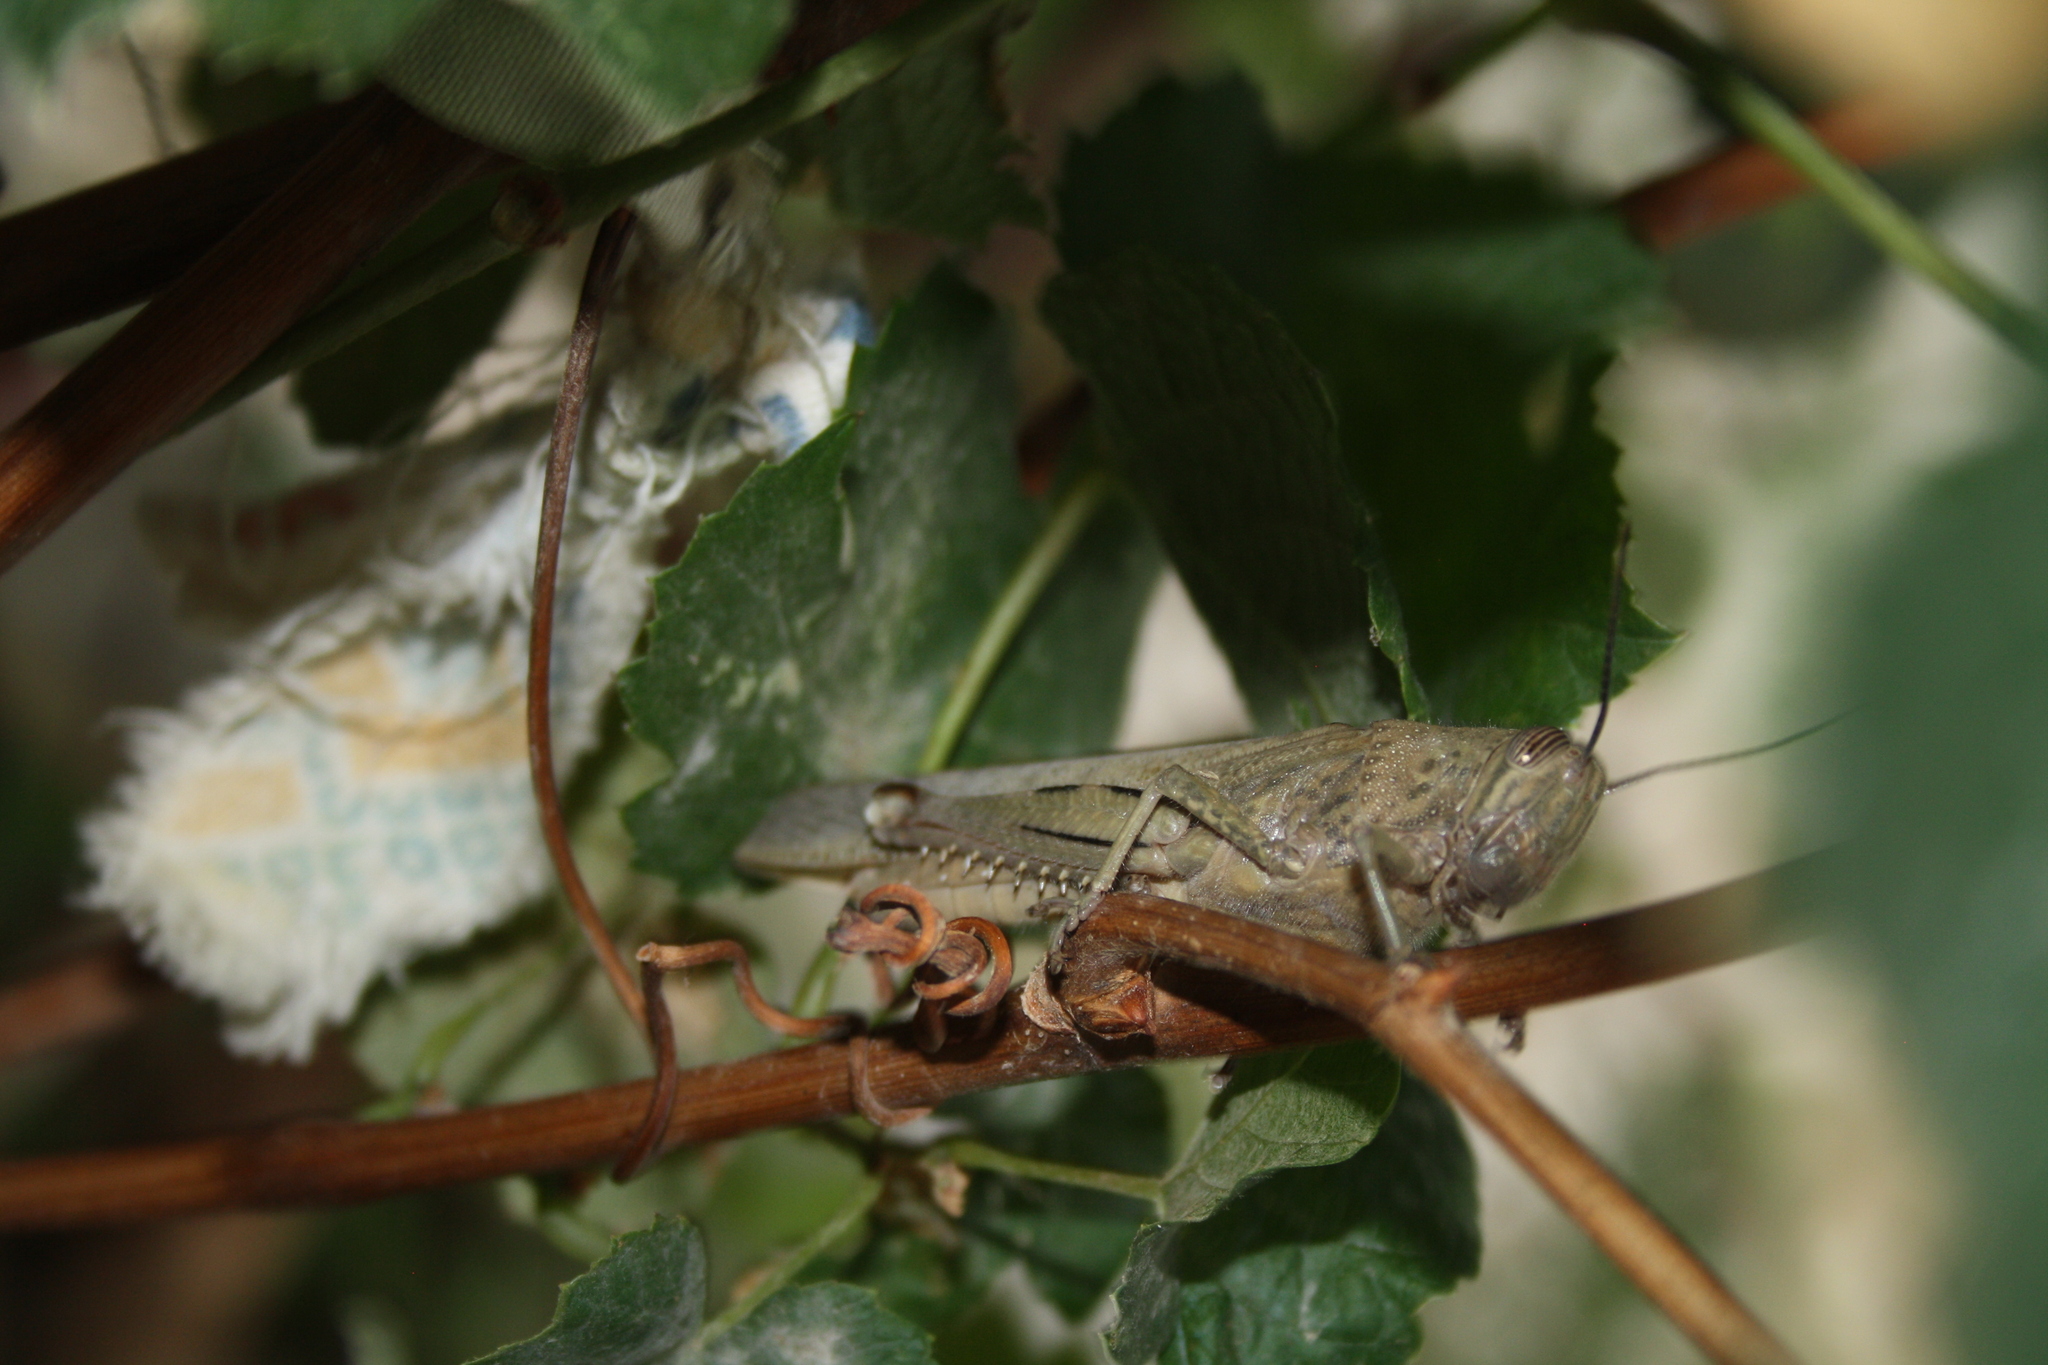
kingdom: Animalia
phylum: Arthropoda
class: Insecta
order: Orthoptera
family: Acrididae
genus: Anacridium
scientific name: Anacridium aegyptium
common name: Egyptian grasshopper
